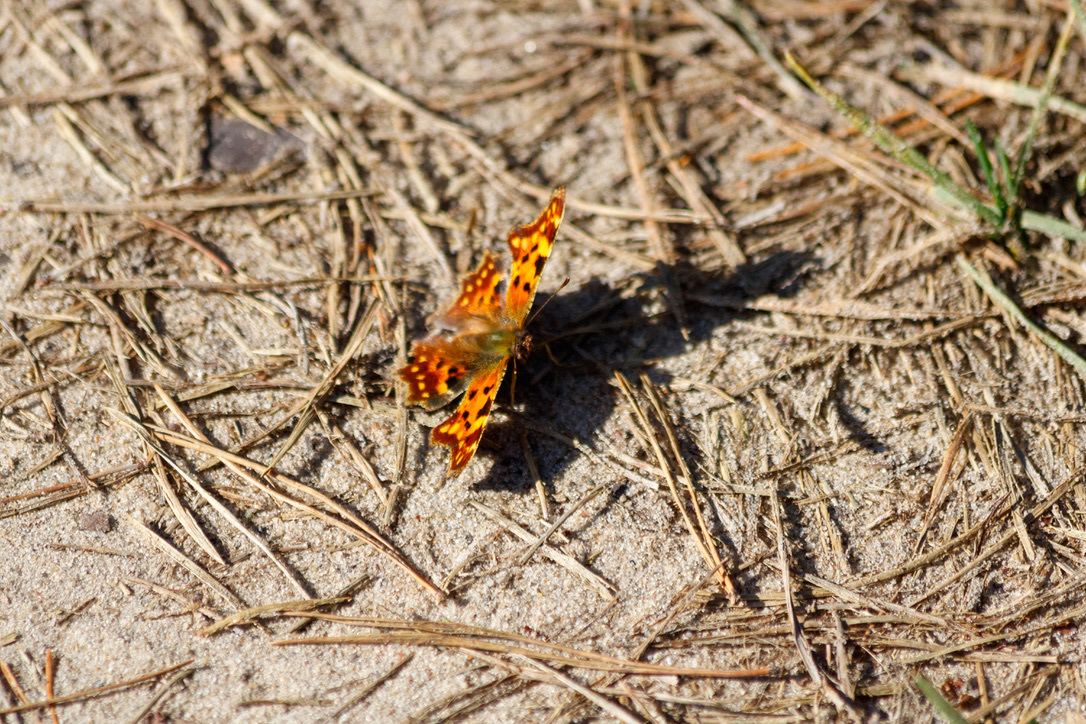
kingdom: Animalia
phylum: Arthropoda
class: Insecta
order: Lepidoptera
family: Nymphalidae
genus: Polygonia
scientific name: Polygonia c-album
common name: Comma
